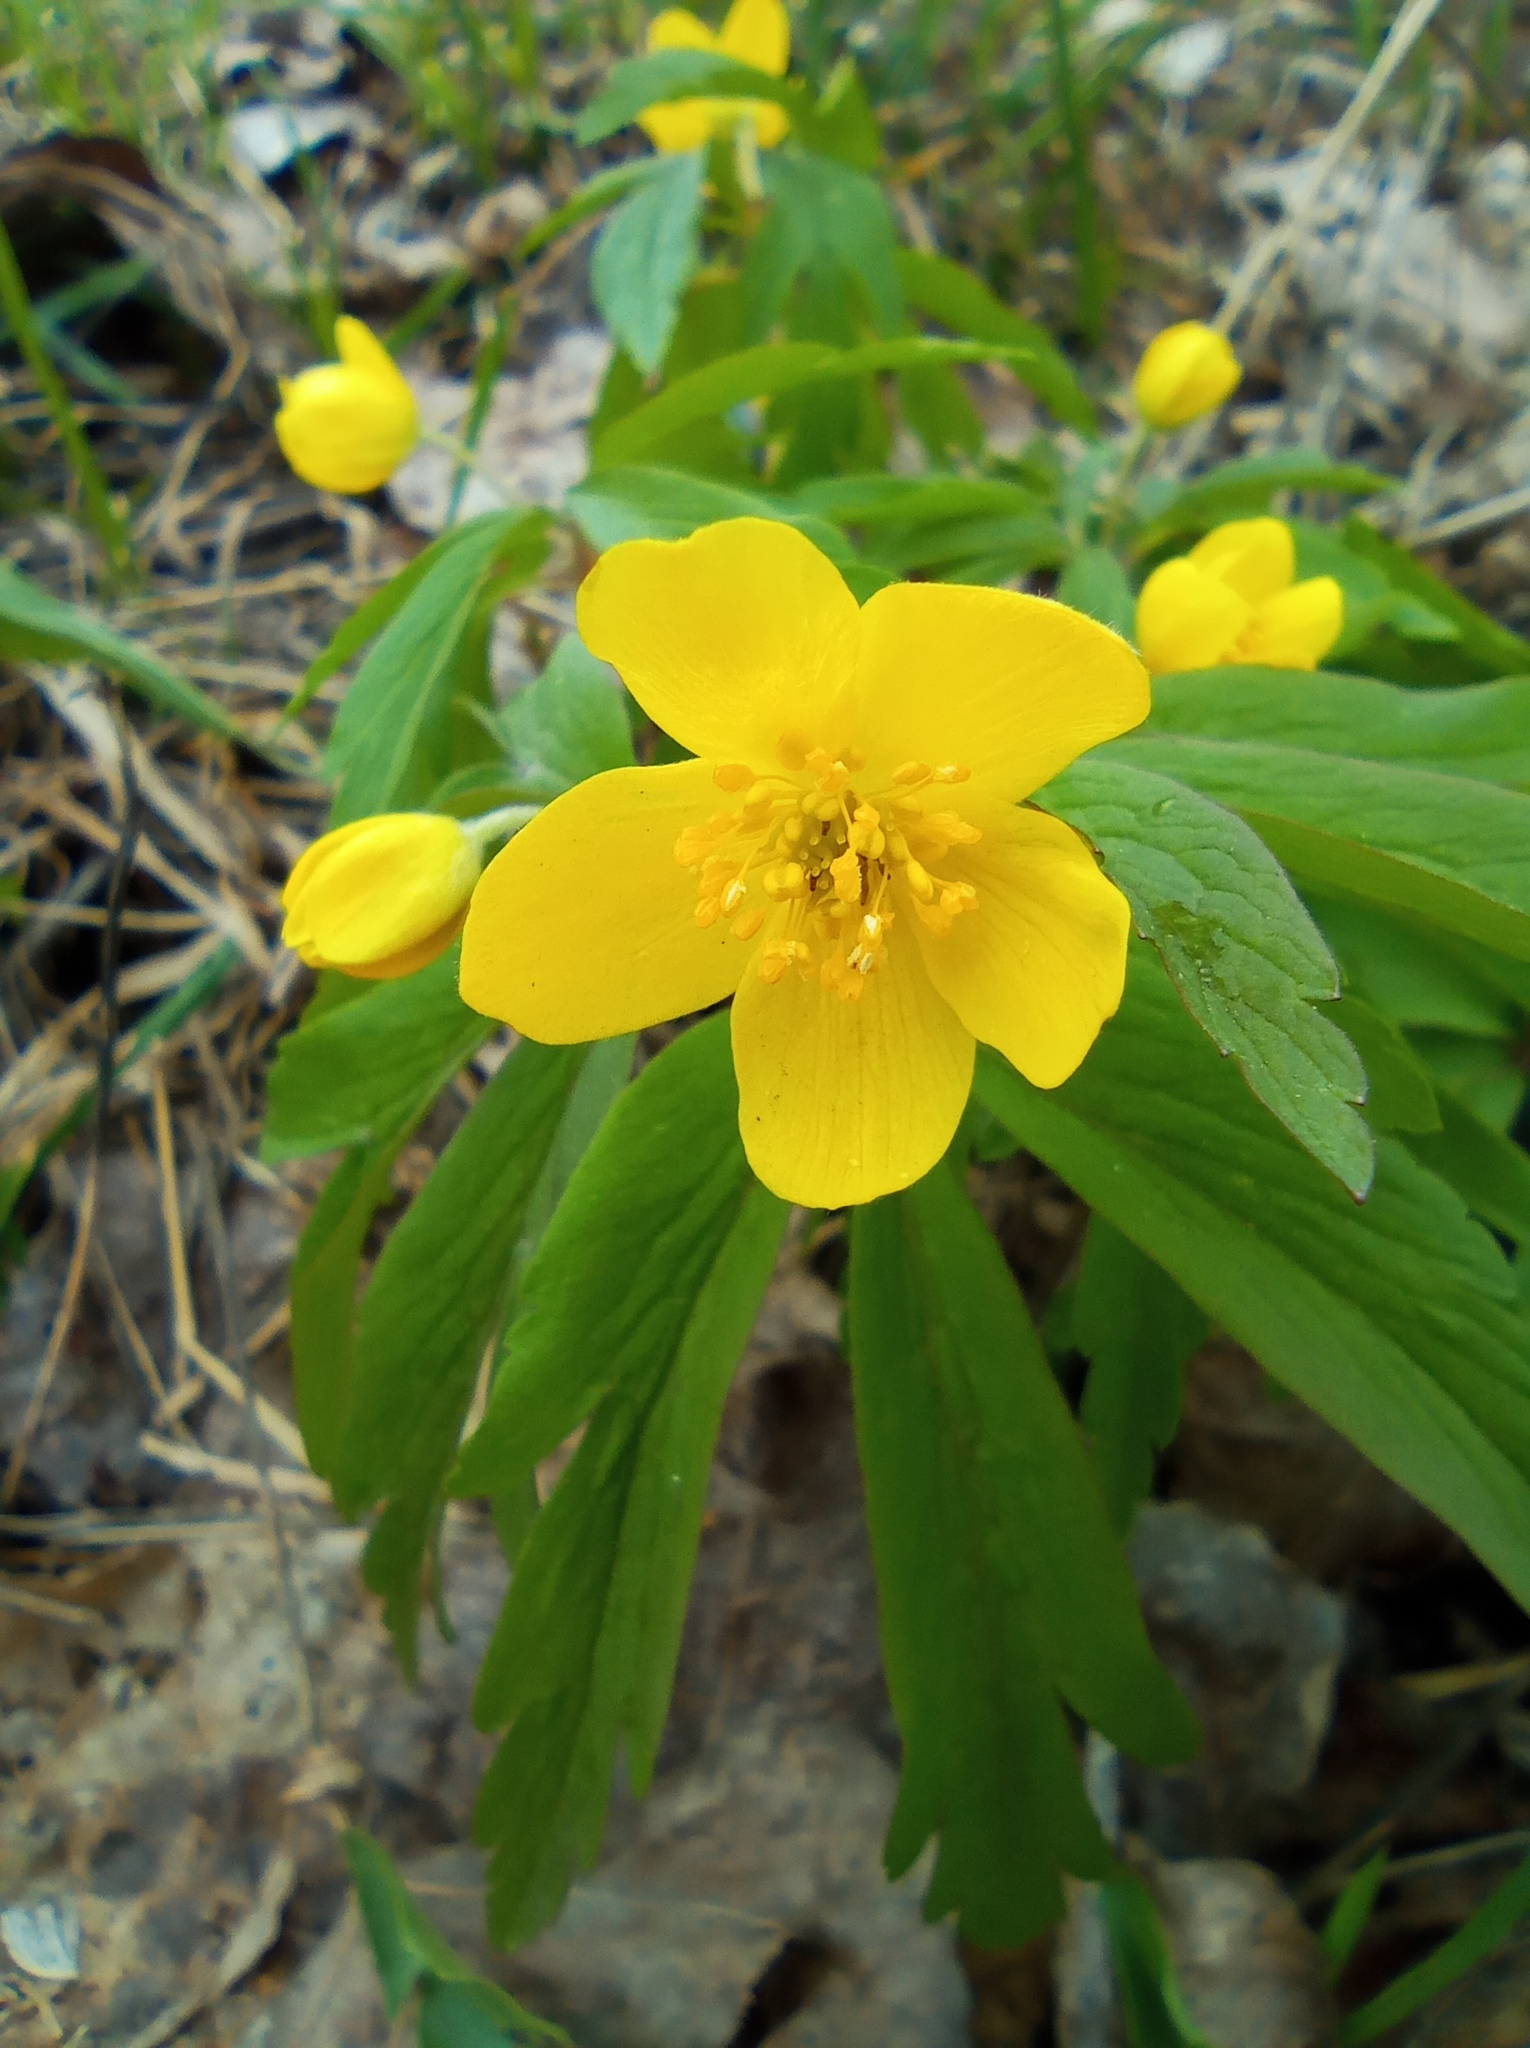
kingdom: Plantae
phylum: Tracheophyta
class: Magnoliopsida
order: Ranunculales
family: Ranunculaceae
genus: Anemone
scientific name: Anemone ranunculoides
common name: Yellow anemone
